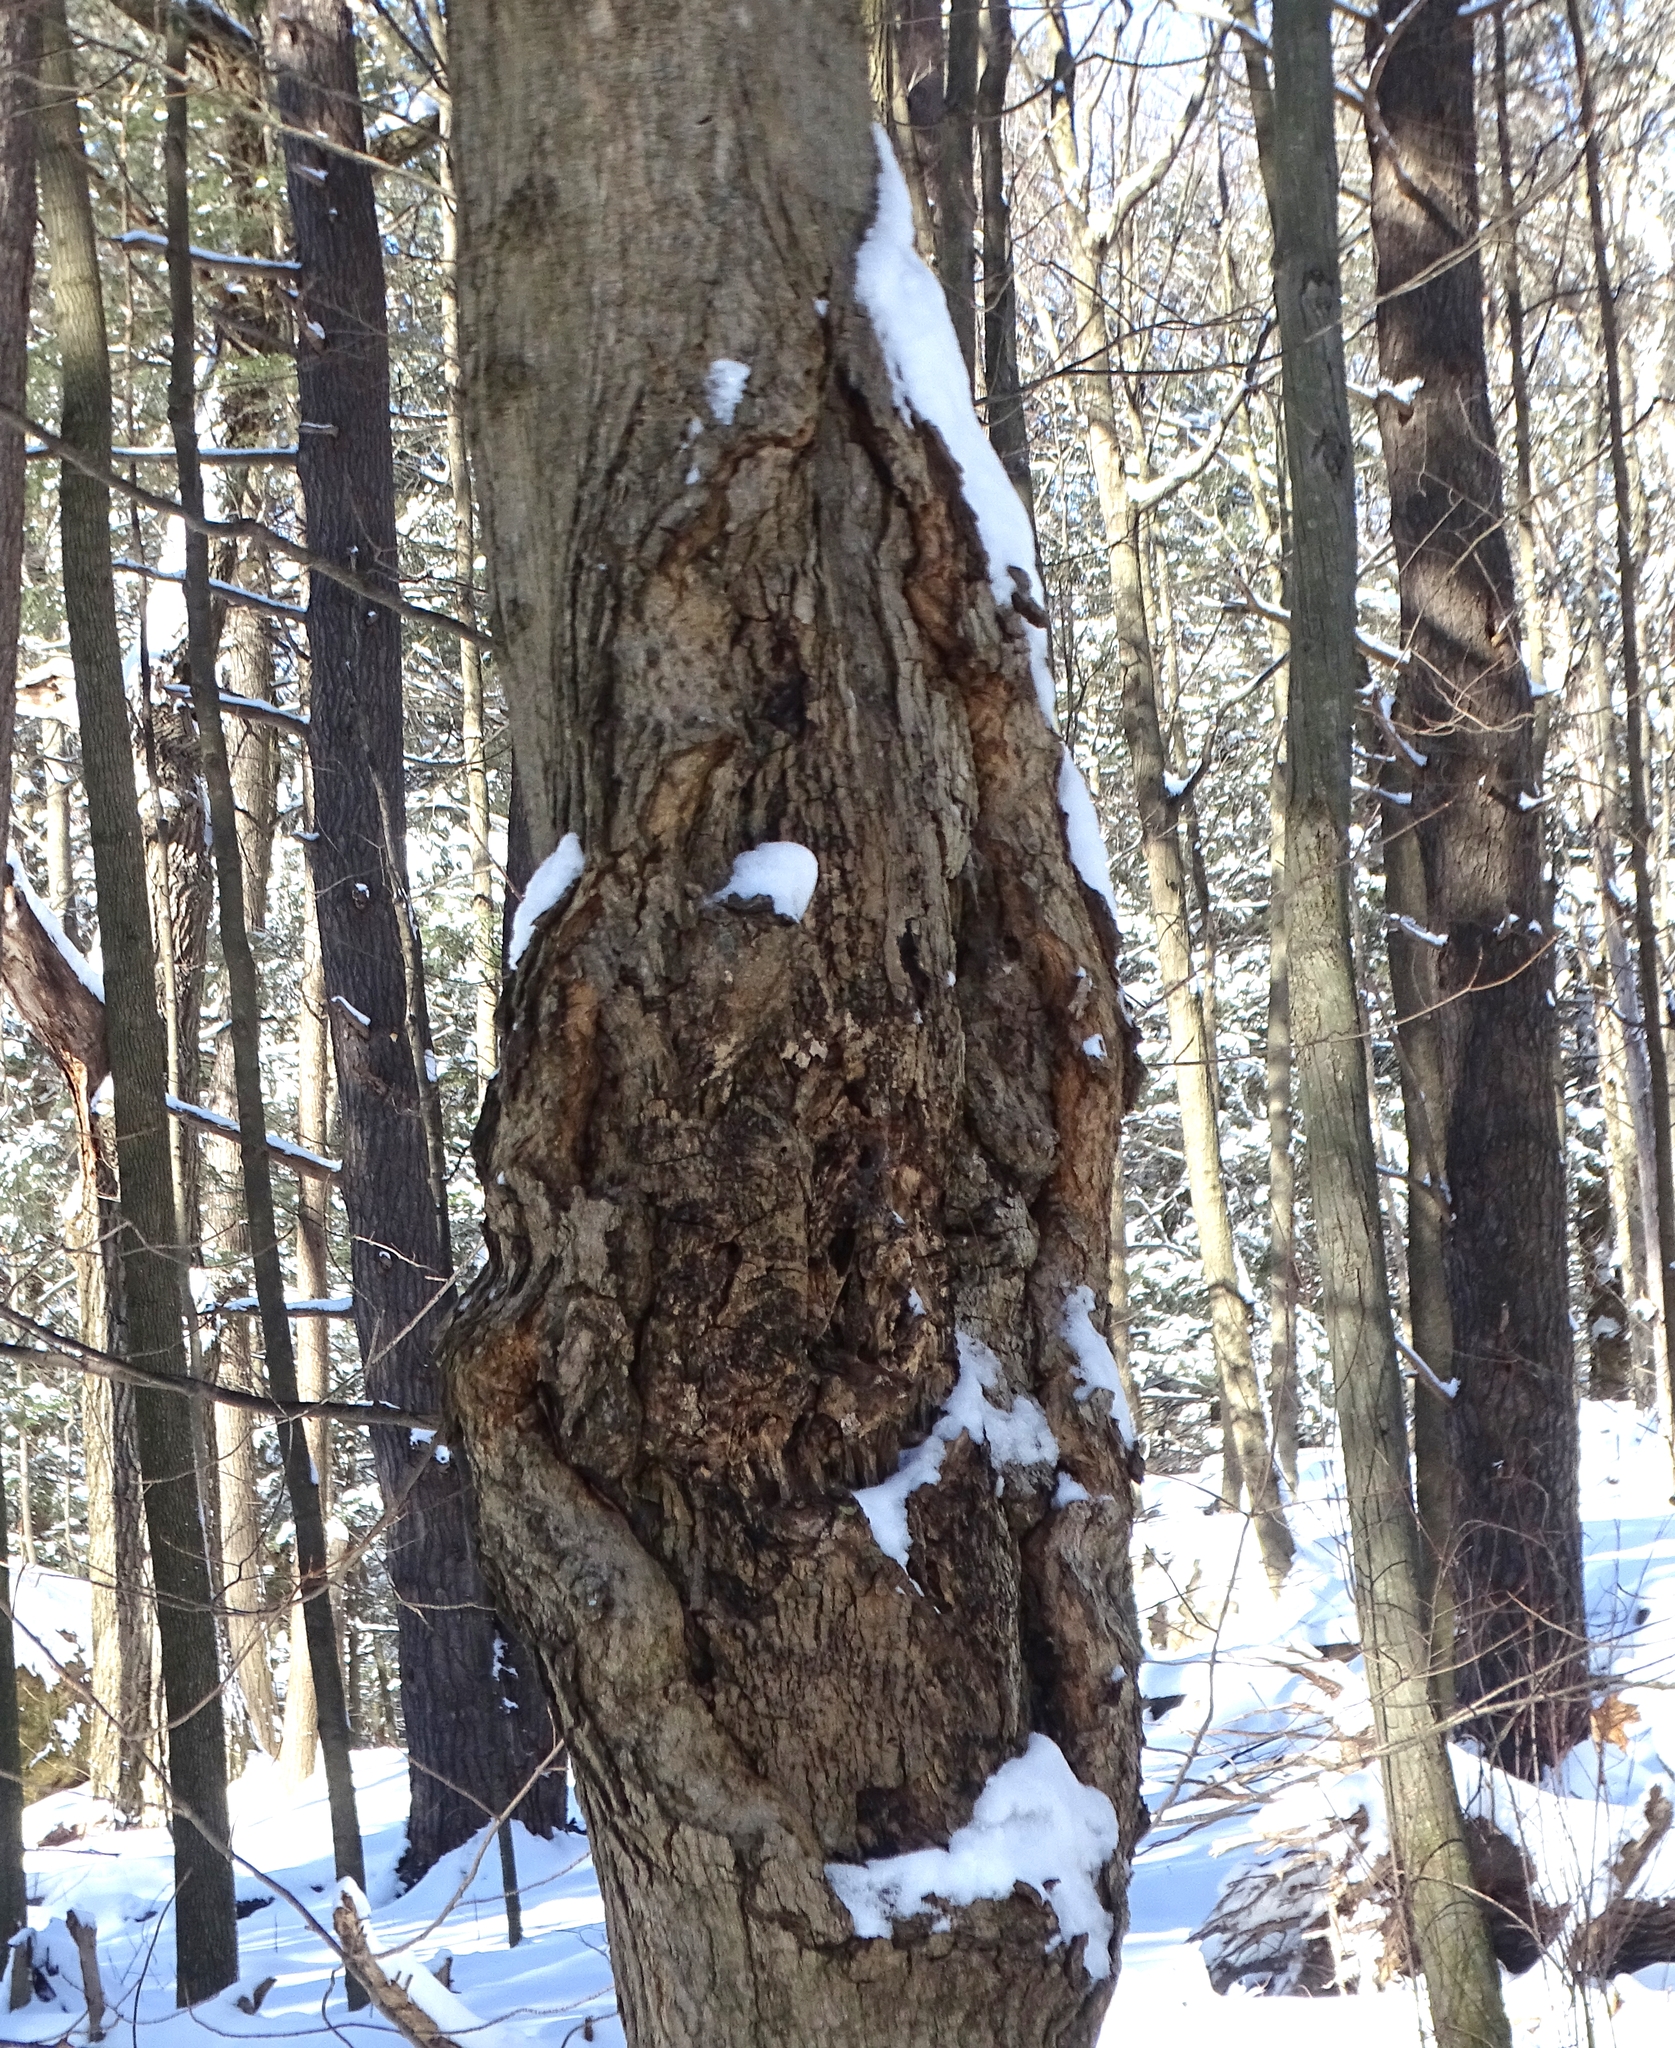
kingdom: Fungi
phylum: Ascomycota
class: Sordariomycetes
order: Xylariales
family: Diatrypaceae
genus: Eutypella
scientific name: Eutypella parasitica
